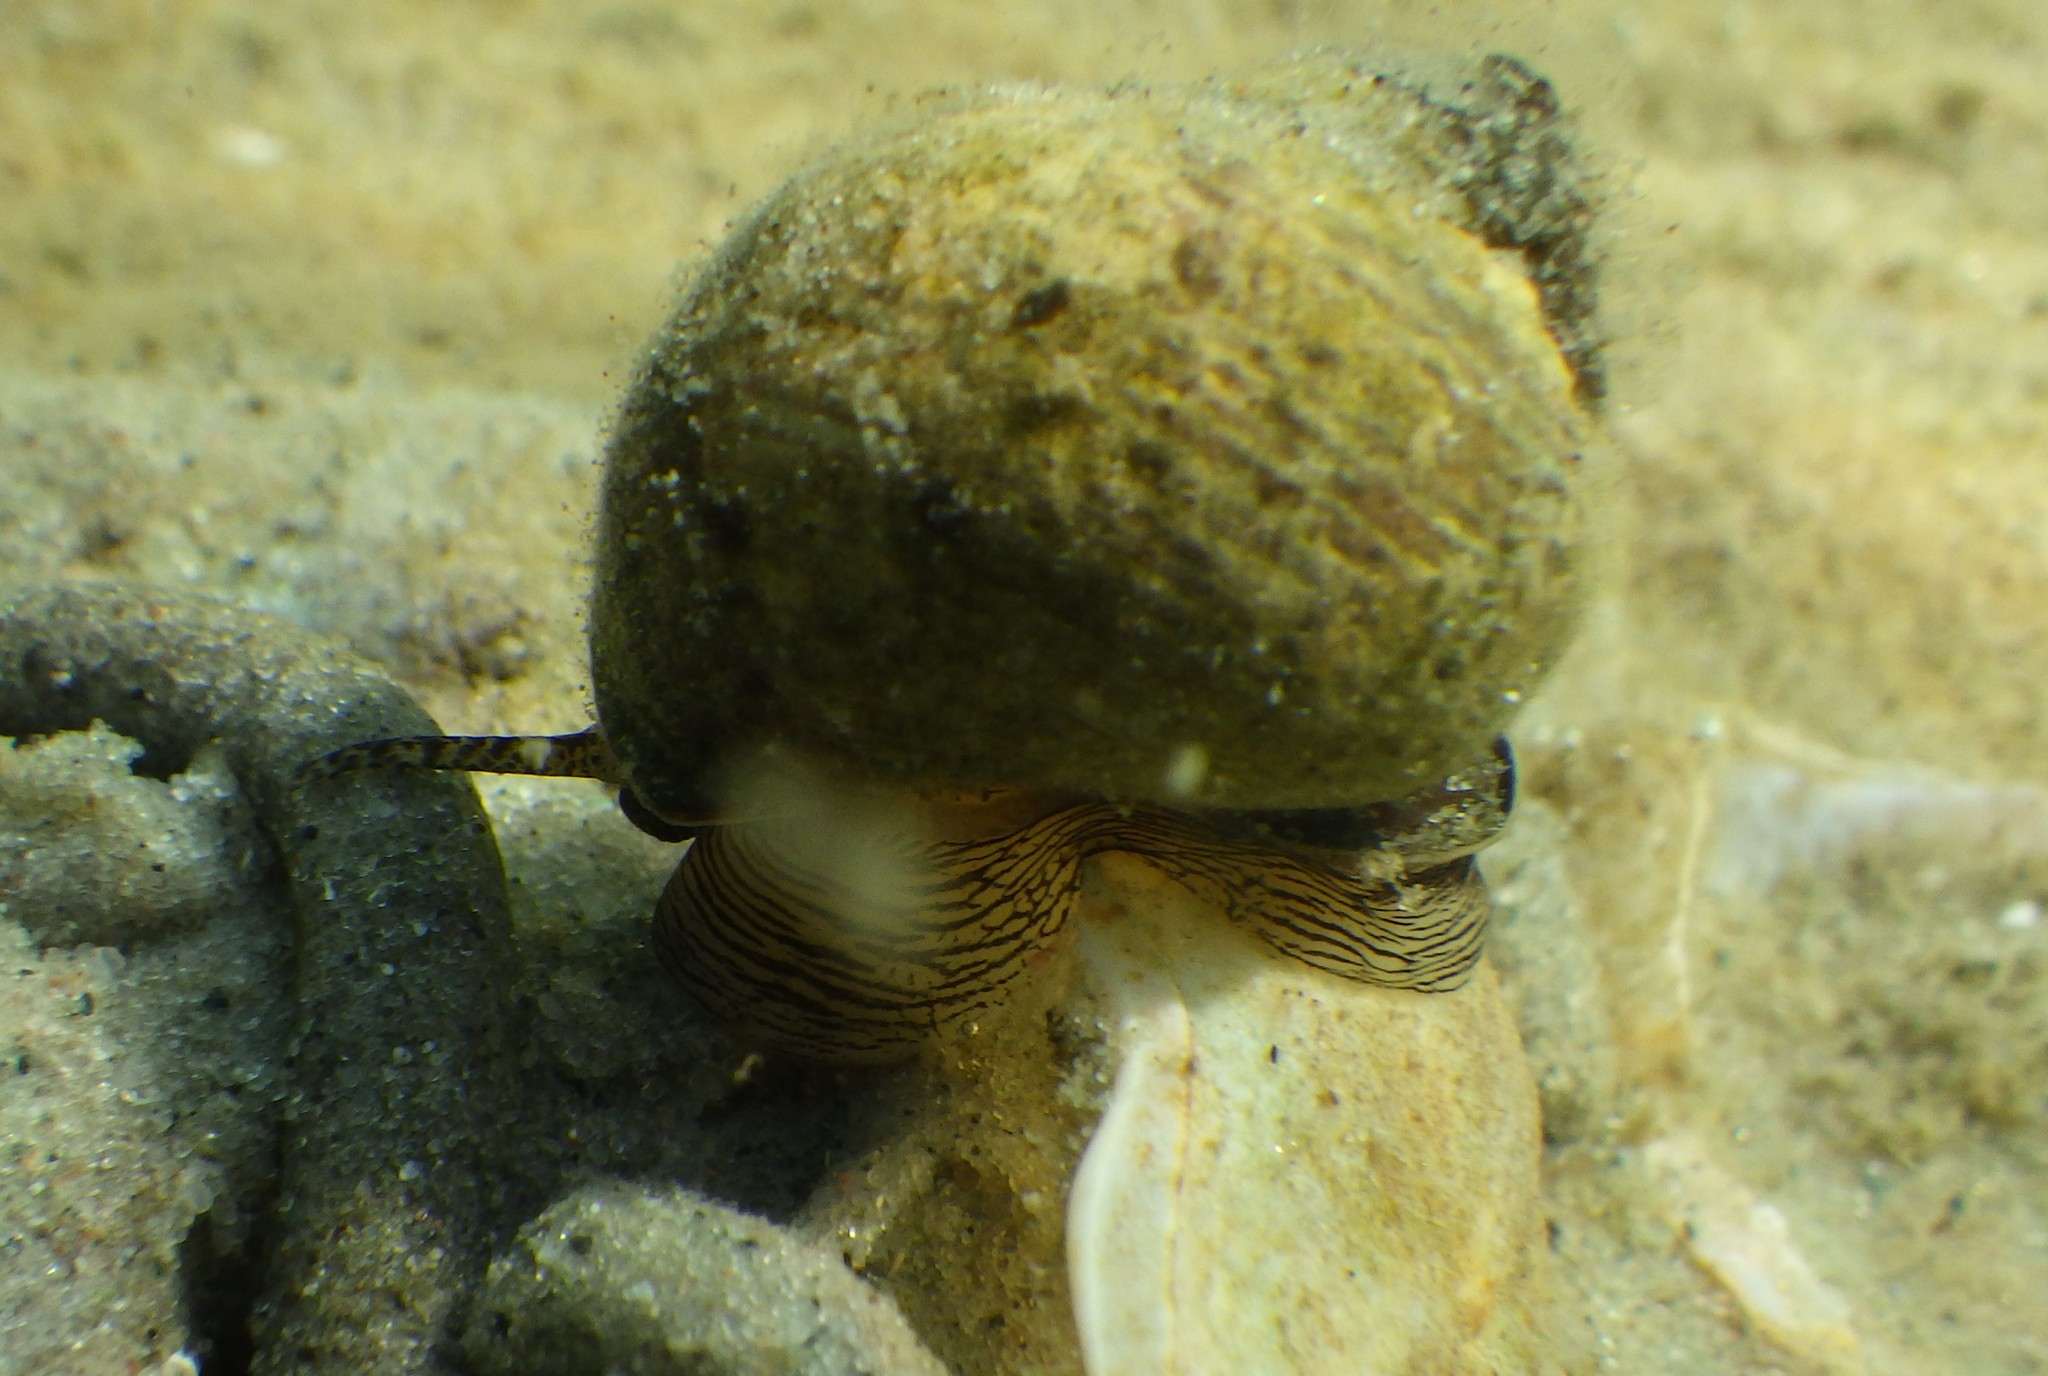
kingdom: Animalia
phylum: Mollusca
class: Gastropoda
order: Littorinimorpha
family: Littorinidae
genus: Littorina
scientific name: Littorina littorea
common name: Common periwinkle
